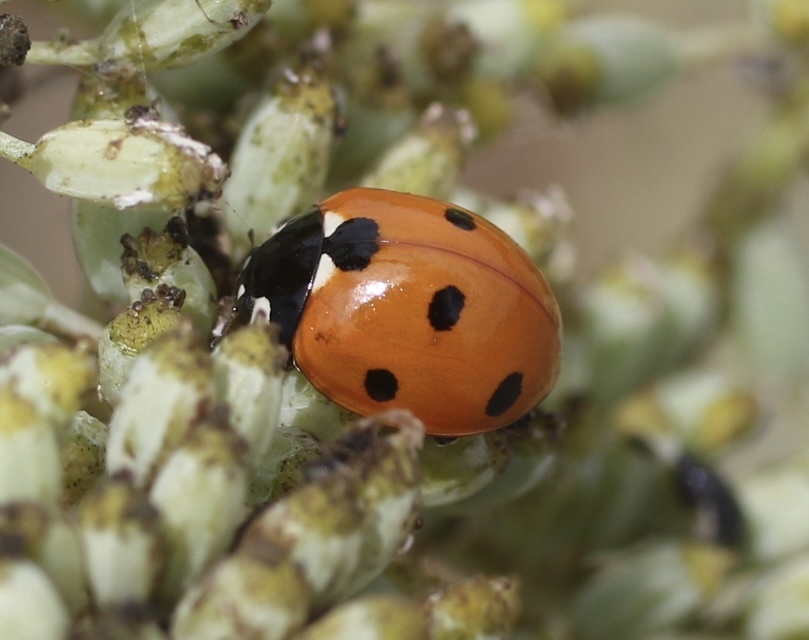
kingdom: Animalia
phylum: Arthropoda
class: Insecta
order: Coleoptera
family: Coccinellidae
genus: Coccinella
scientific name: Coccinella septempunctata
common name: Sevenspotted lady beetle
